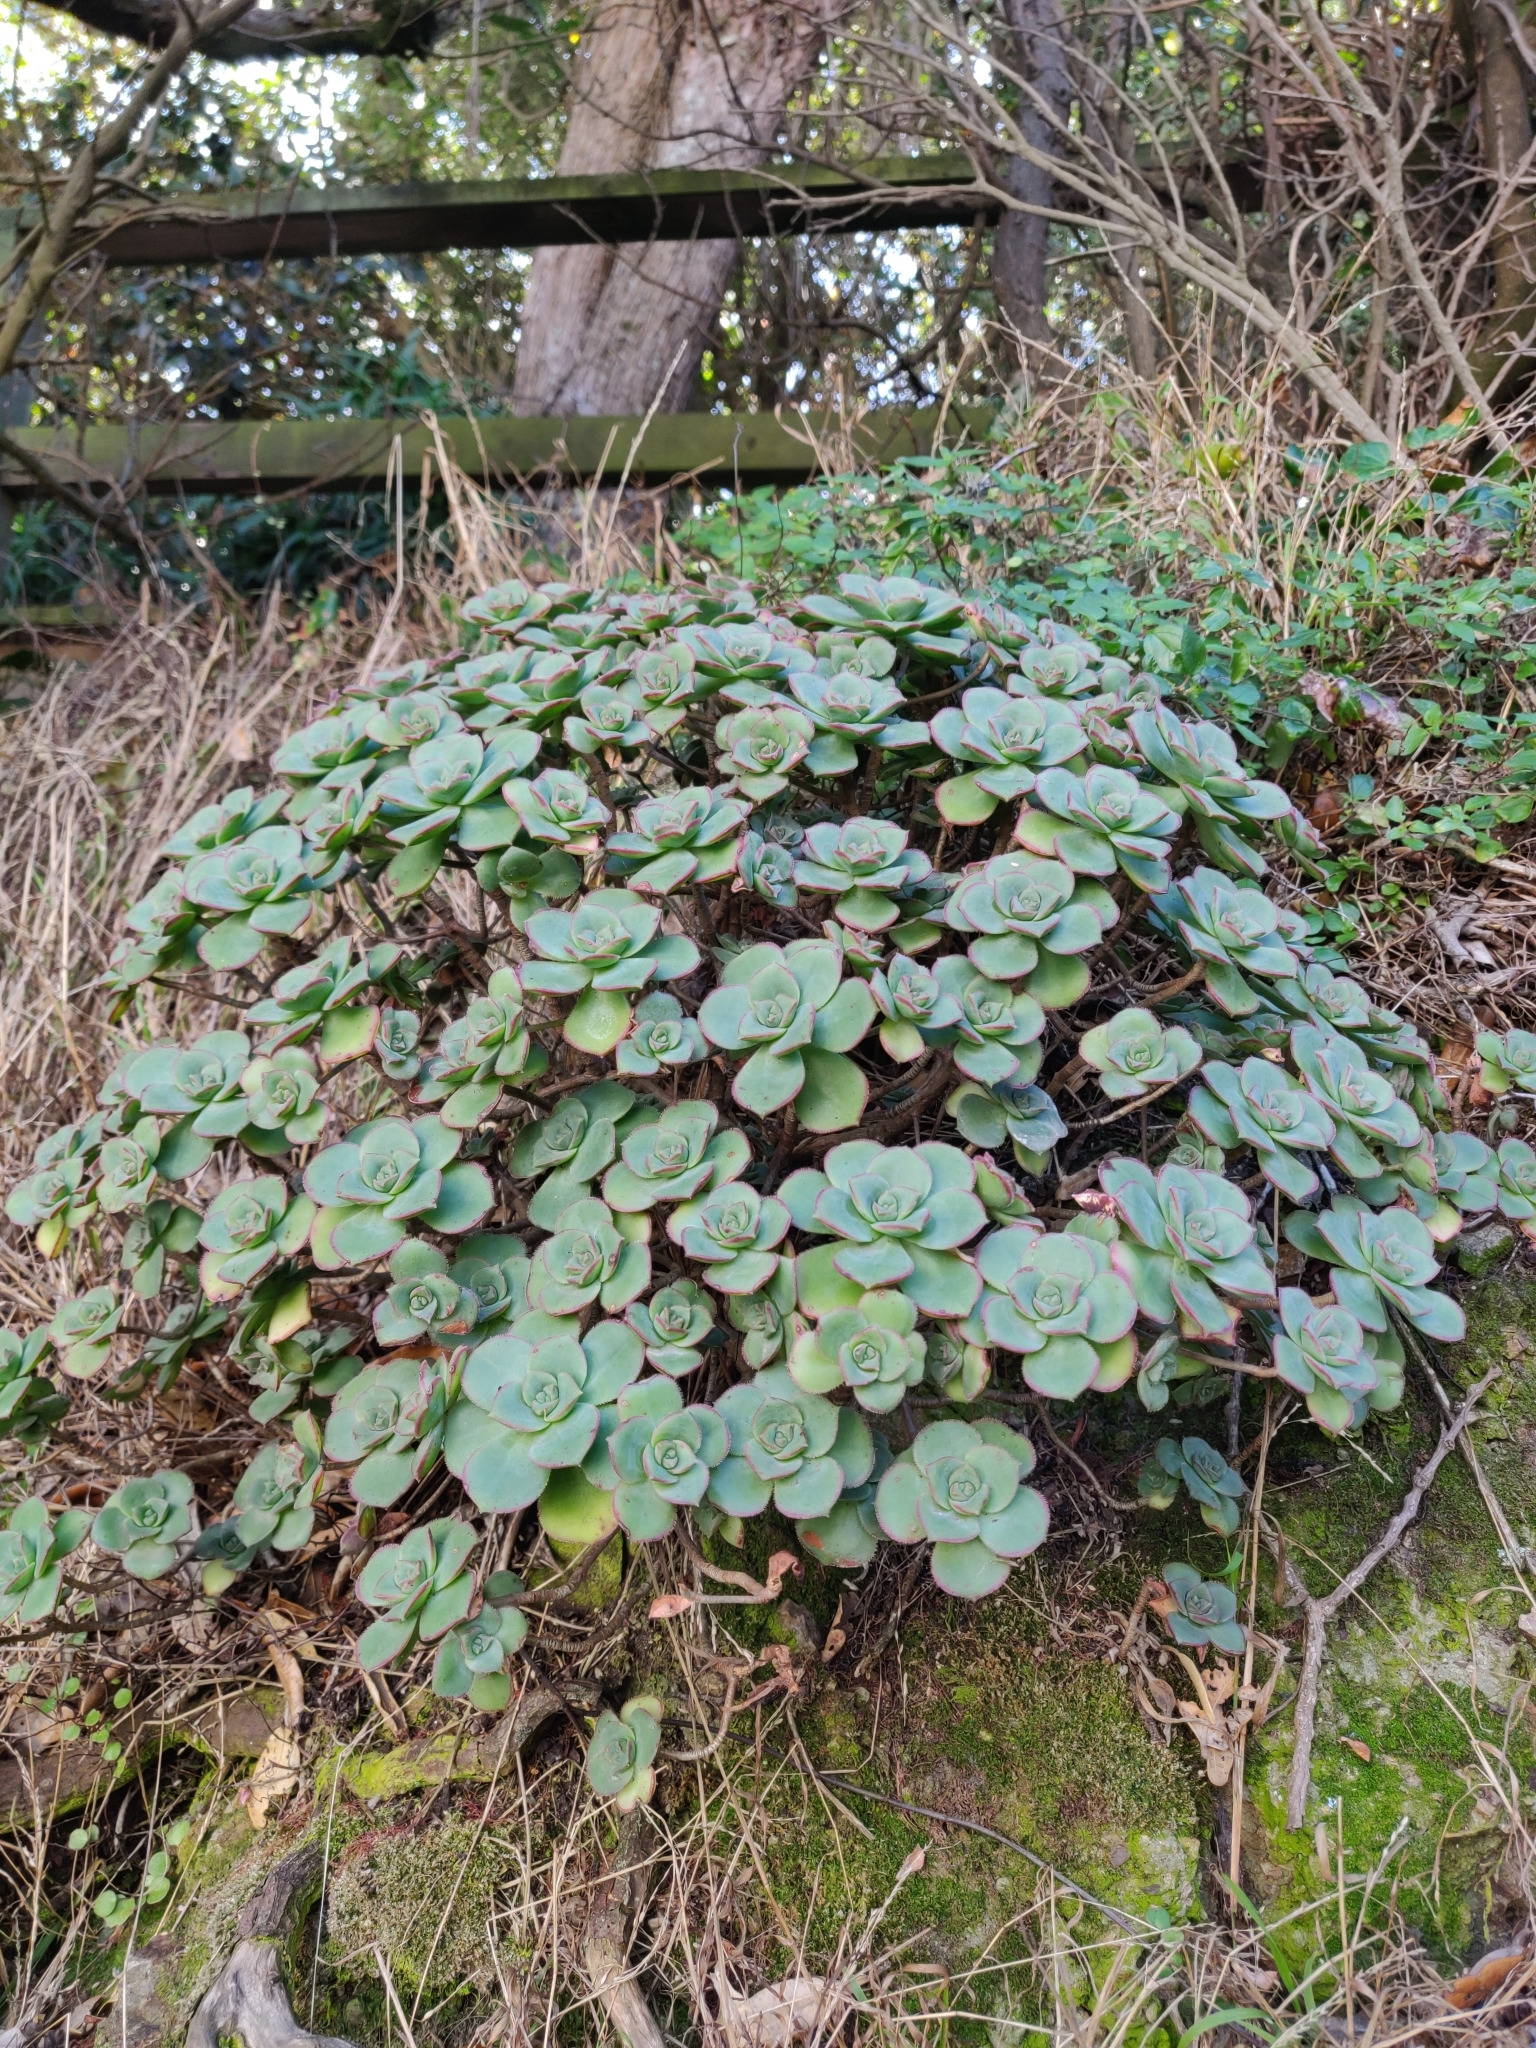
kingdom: Plantae
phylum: Tracheophyta
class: Magnoliopsida
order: Saxifragales
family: Crassulaceae
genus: Aeonium
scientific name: Aeonium haworthii
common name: Haworth's aeonium
